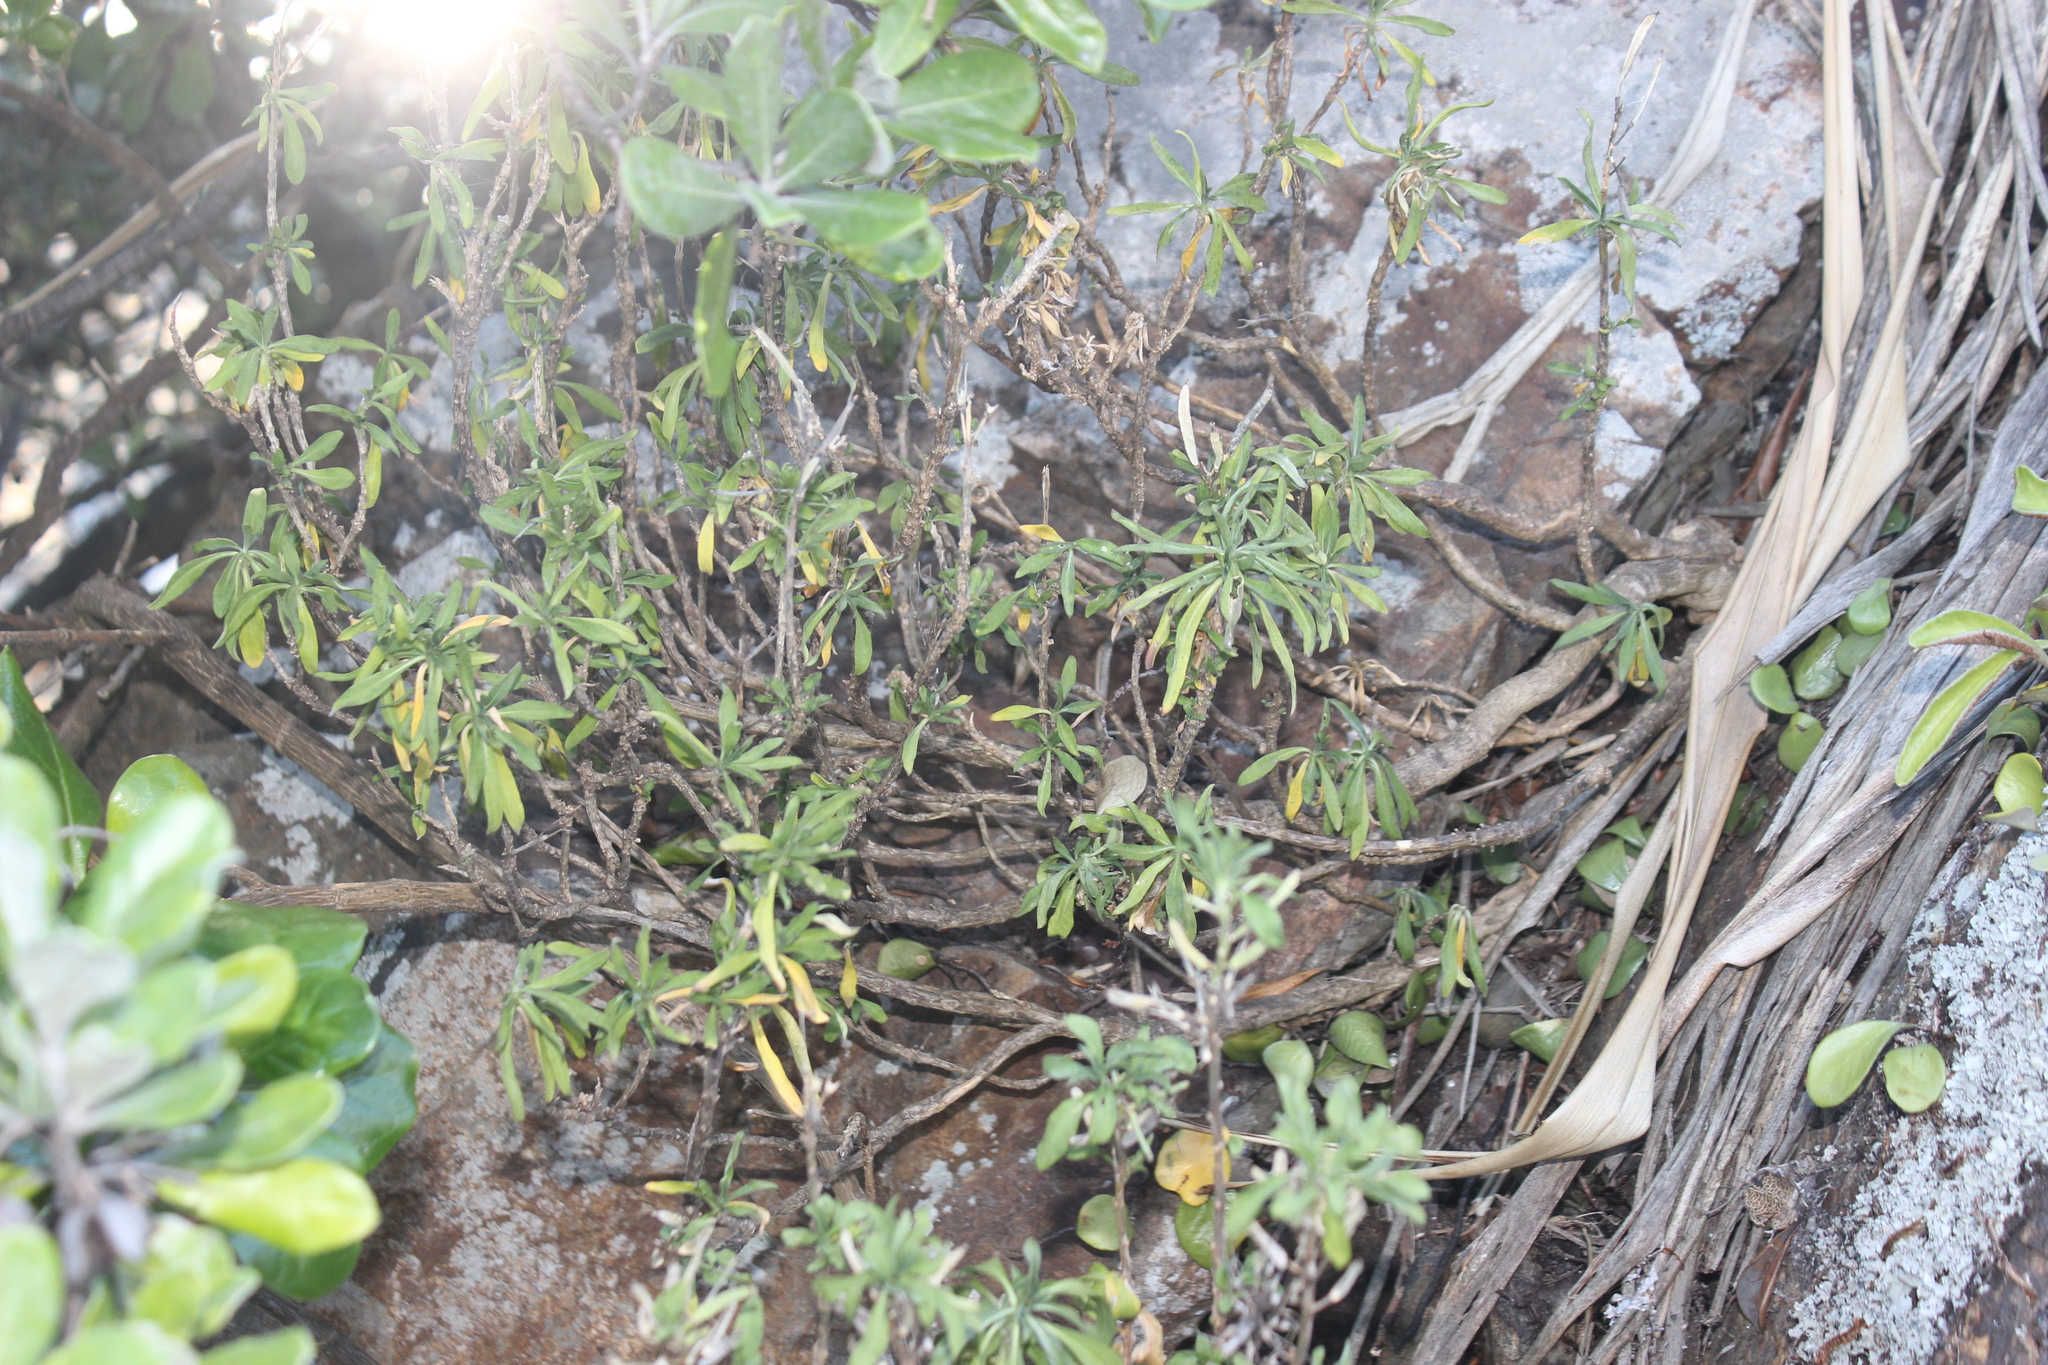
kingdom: Plantae
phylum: Tracheophyta
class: Magnoliopsida
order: Brassicales
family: Brassicaceae
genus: Erysimum
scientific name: Erysimum cheiri
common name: Wallflower
